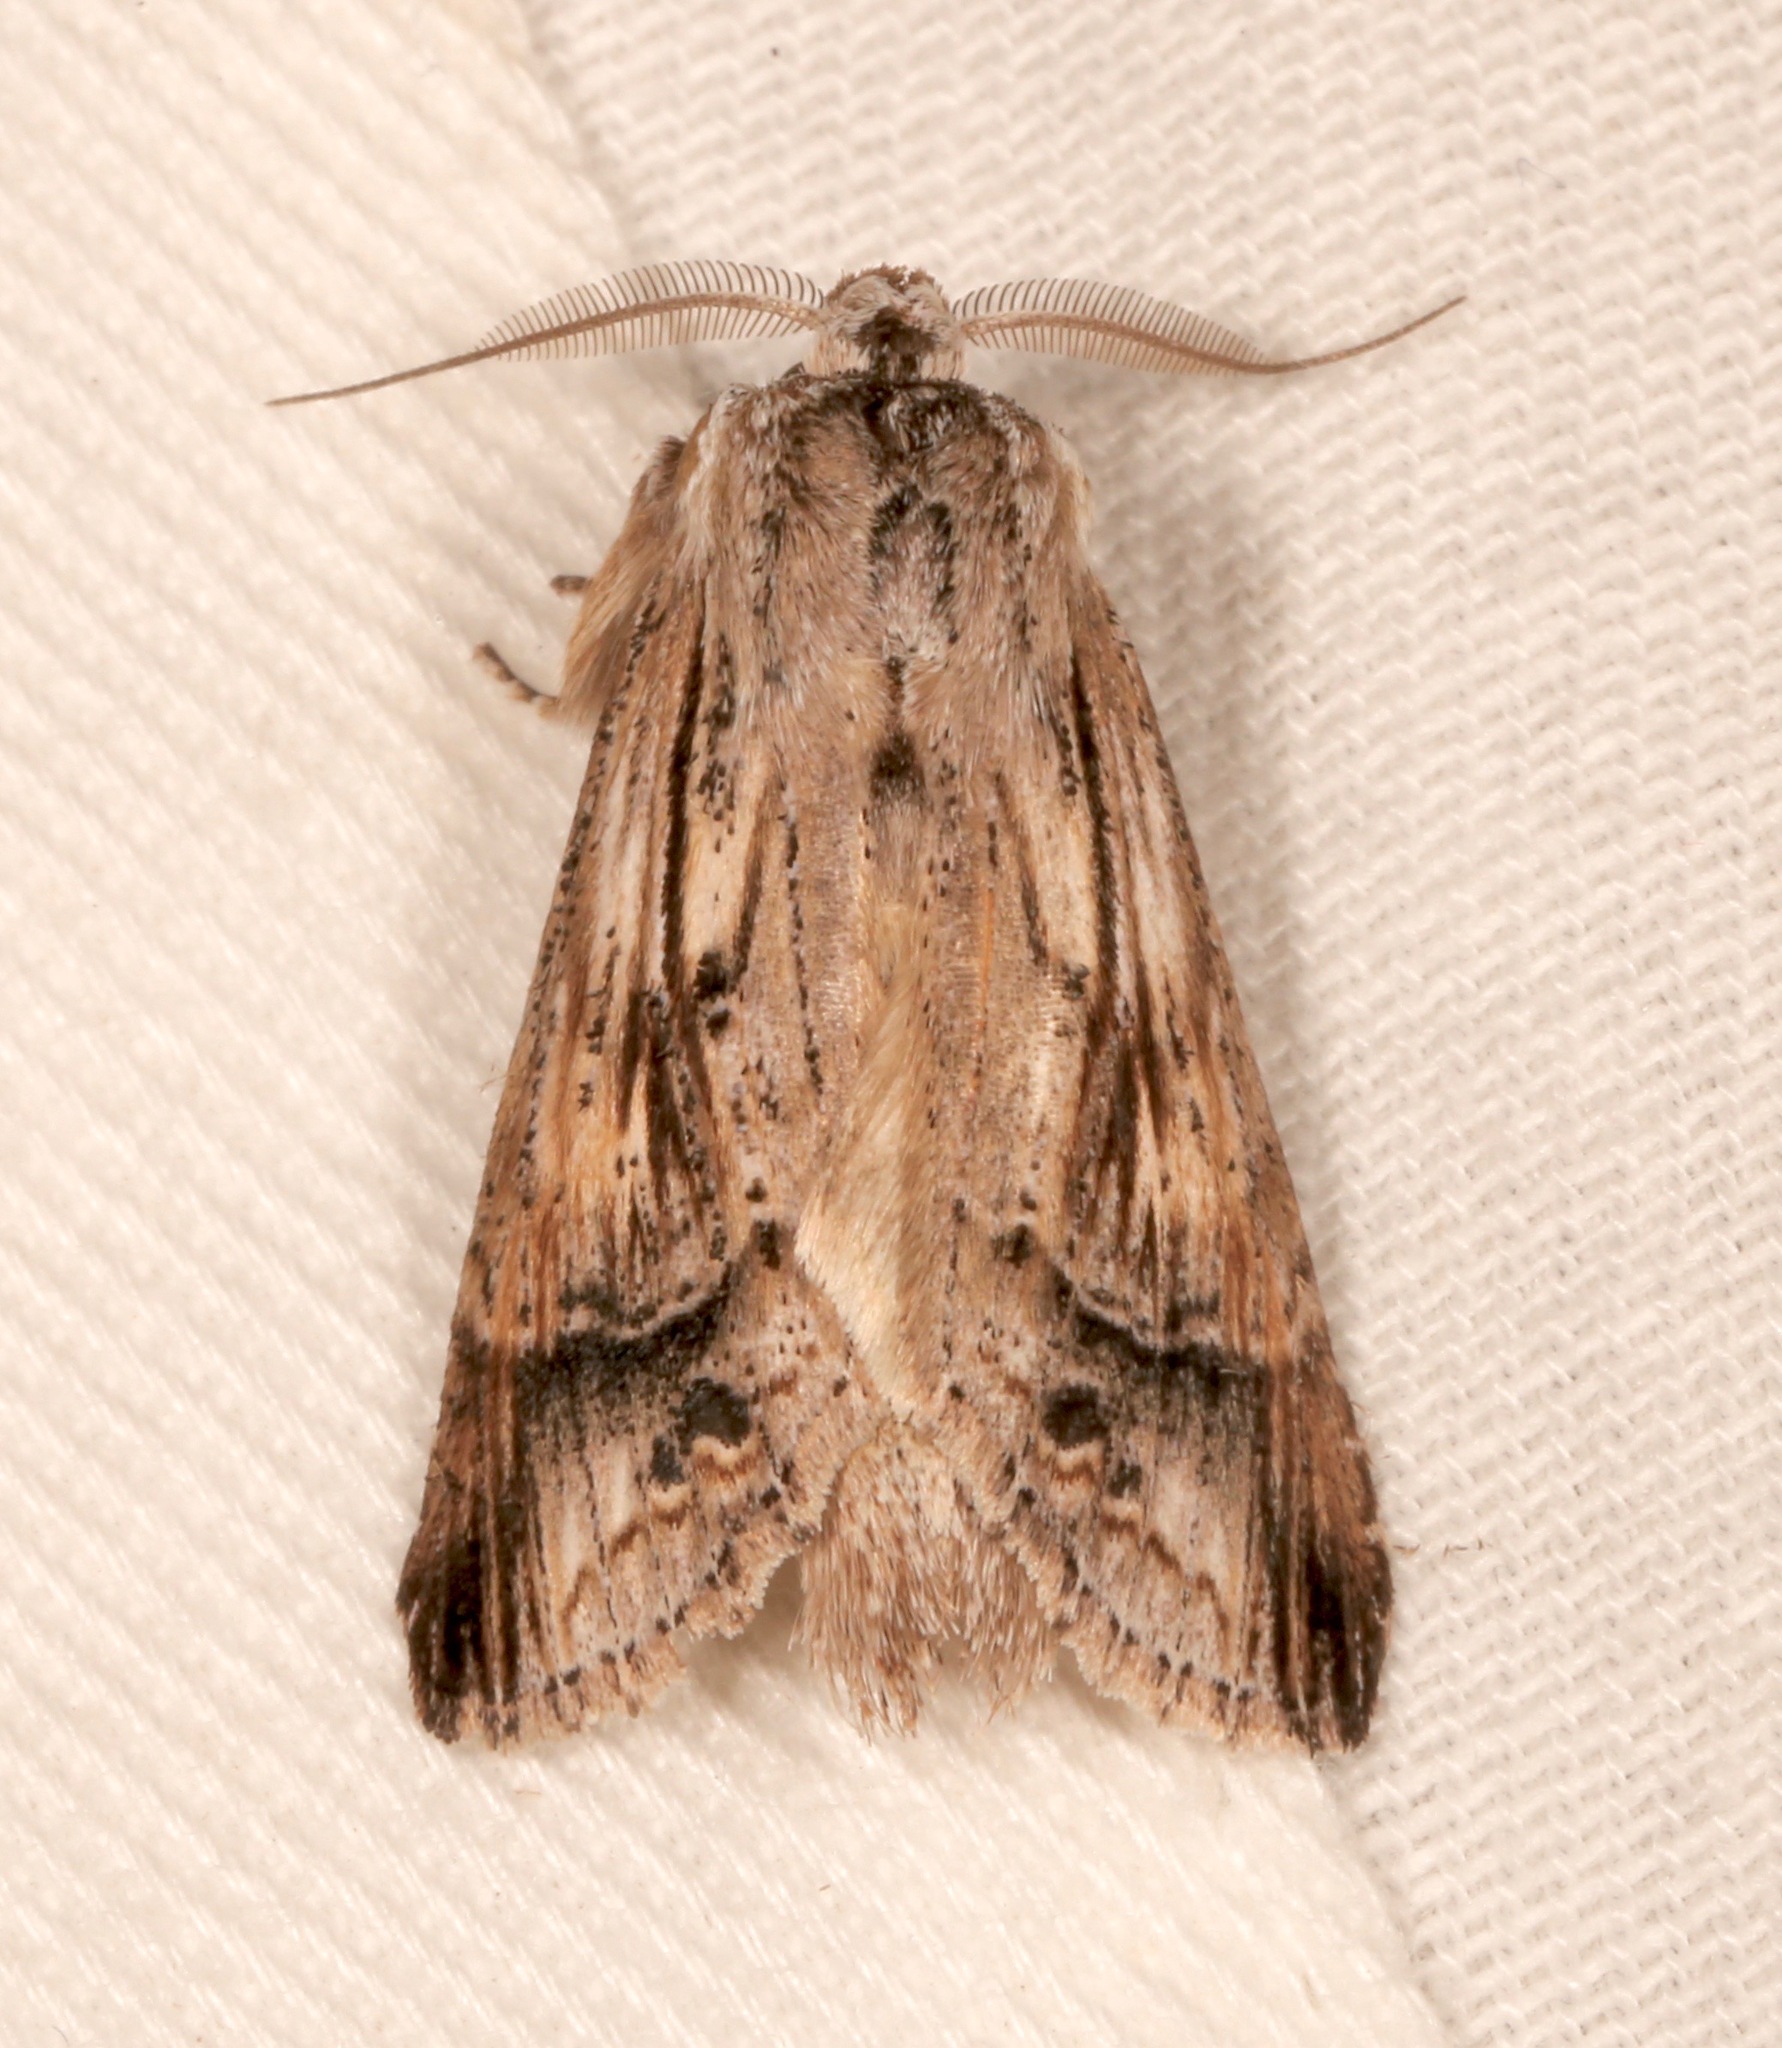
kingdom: Animalia
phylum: Arthropoda
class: Insecta
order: Lepidoptera
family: Notodontidae
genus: Dasylophia
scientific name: Dasylophia anguina
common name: Black-spotted prominent
